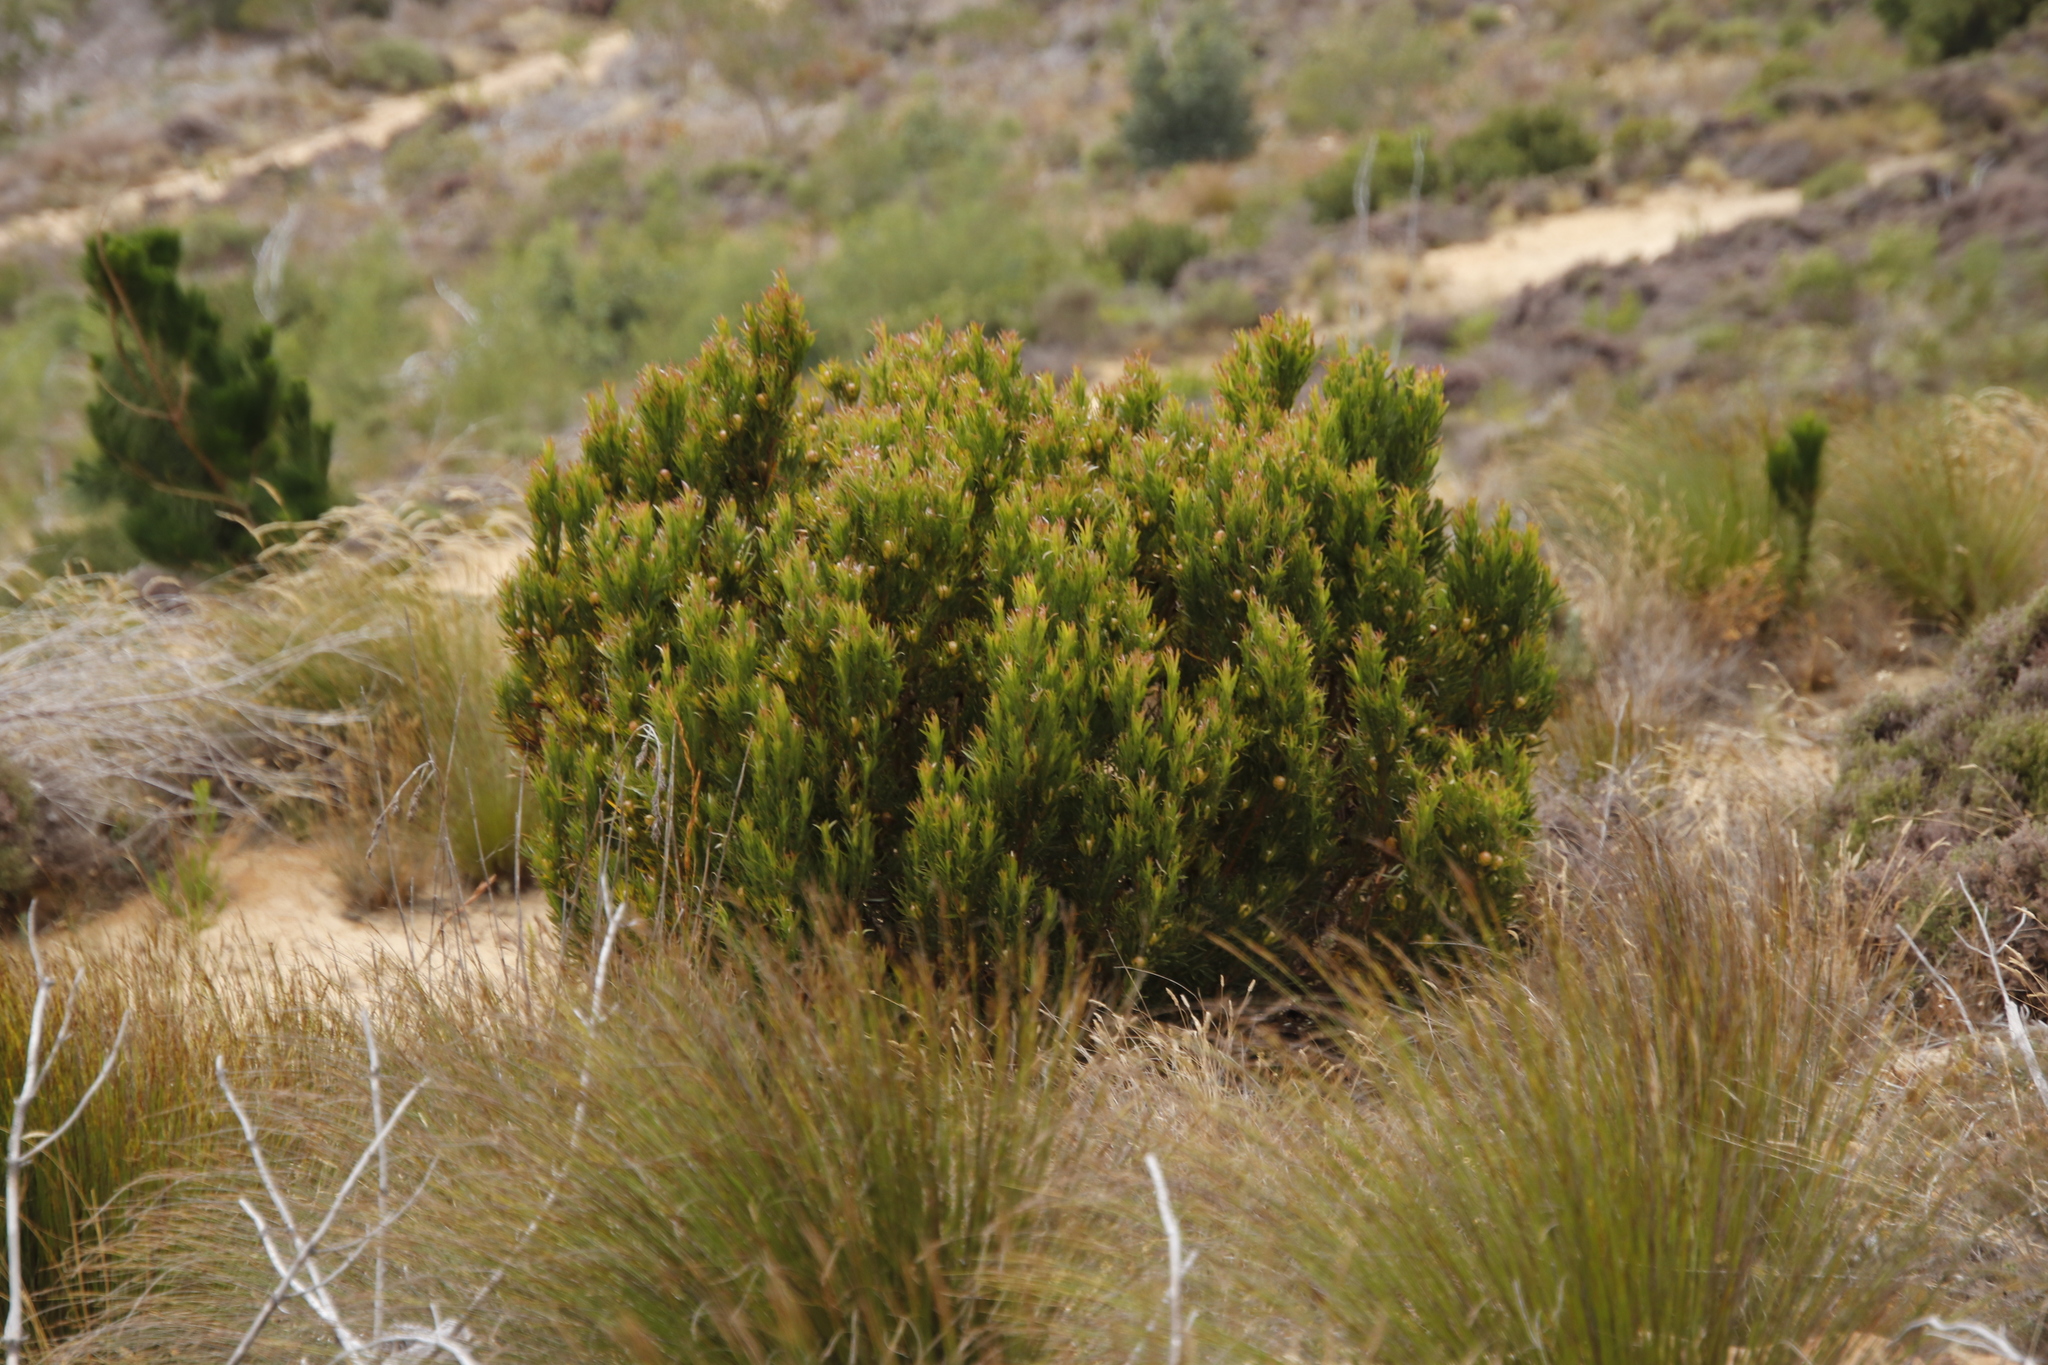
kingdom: Plantae
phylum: Tracheophyta
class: Magnoliopsida
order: Proteales
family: Proteaceae
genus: Leucadendron
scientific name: Leucadendron xanthoconus
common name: Sickle-leaf conebush
